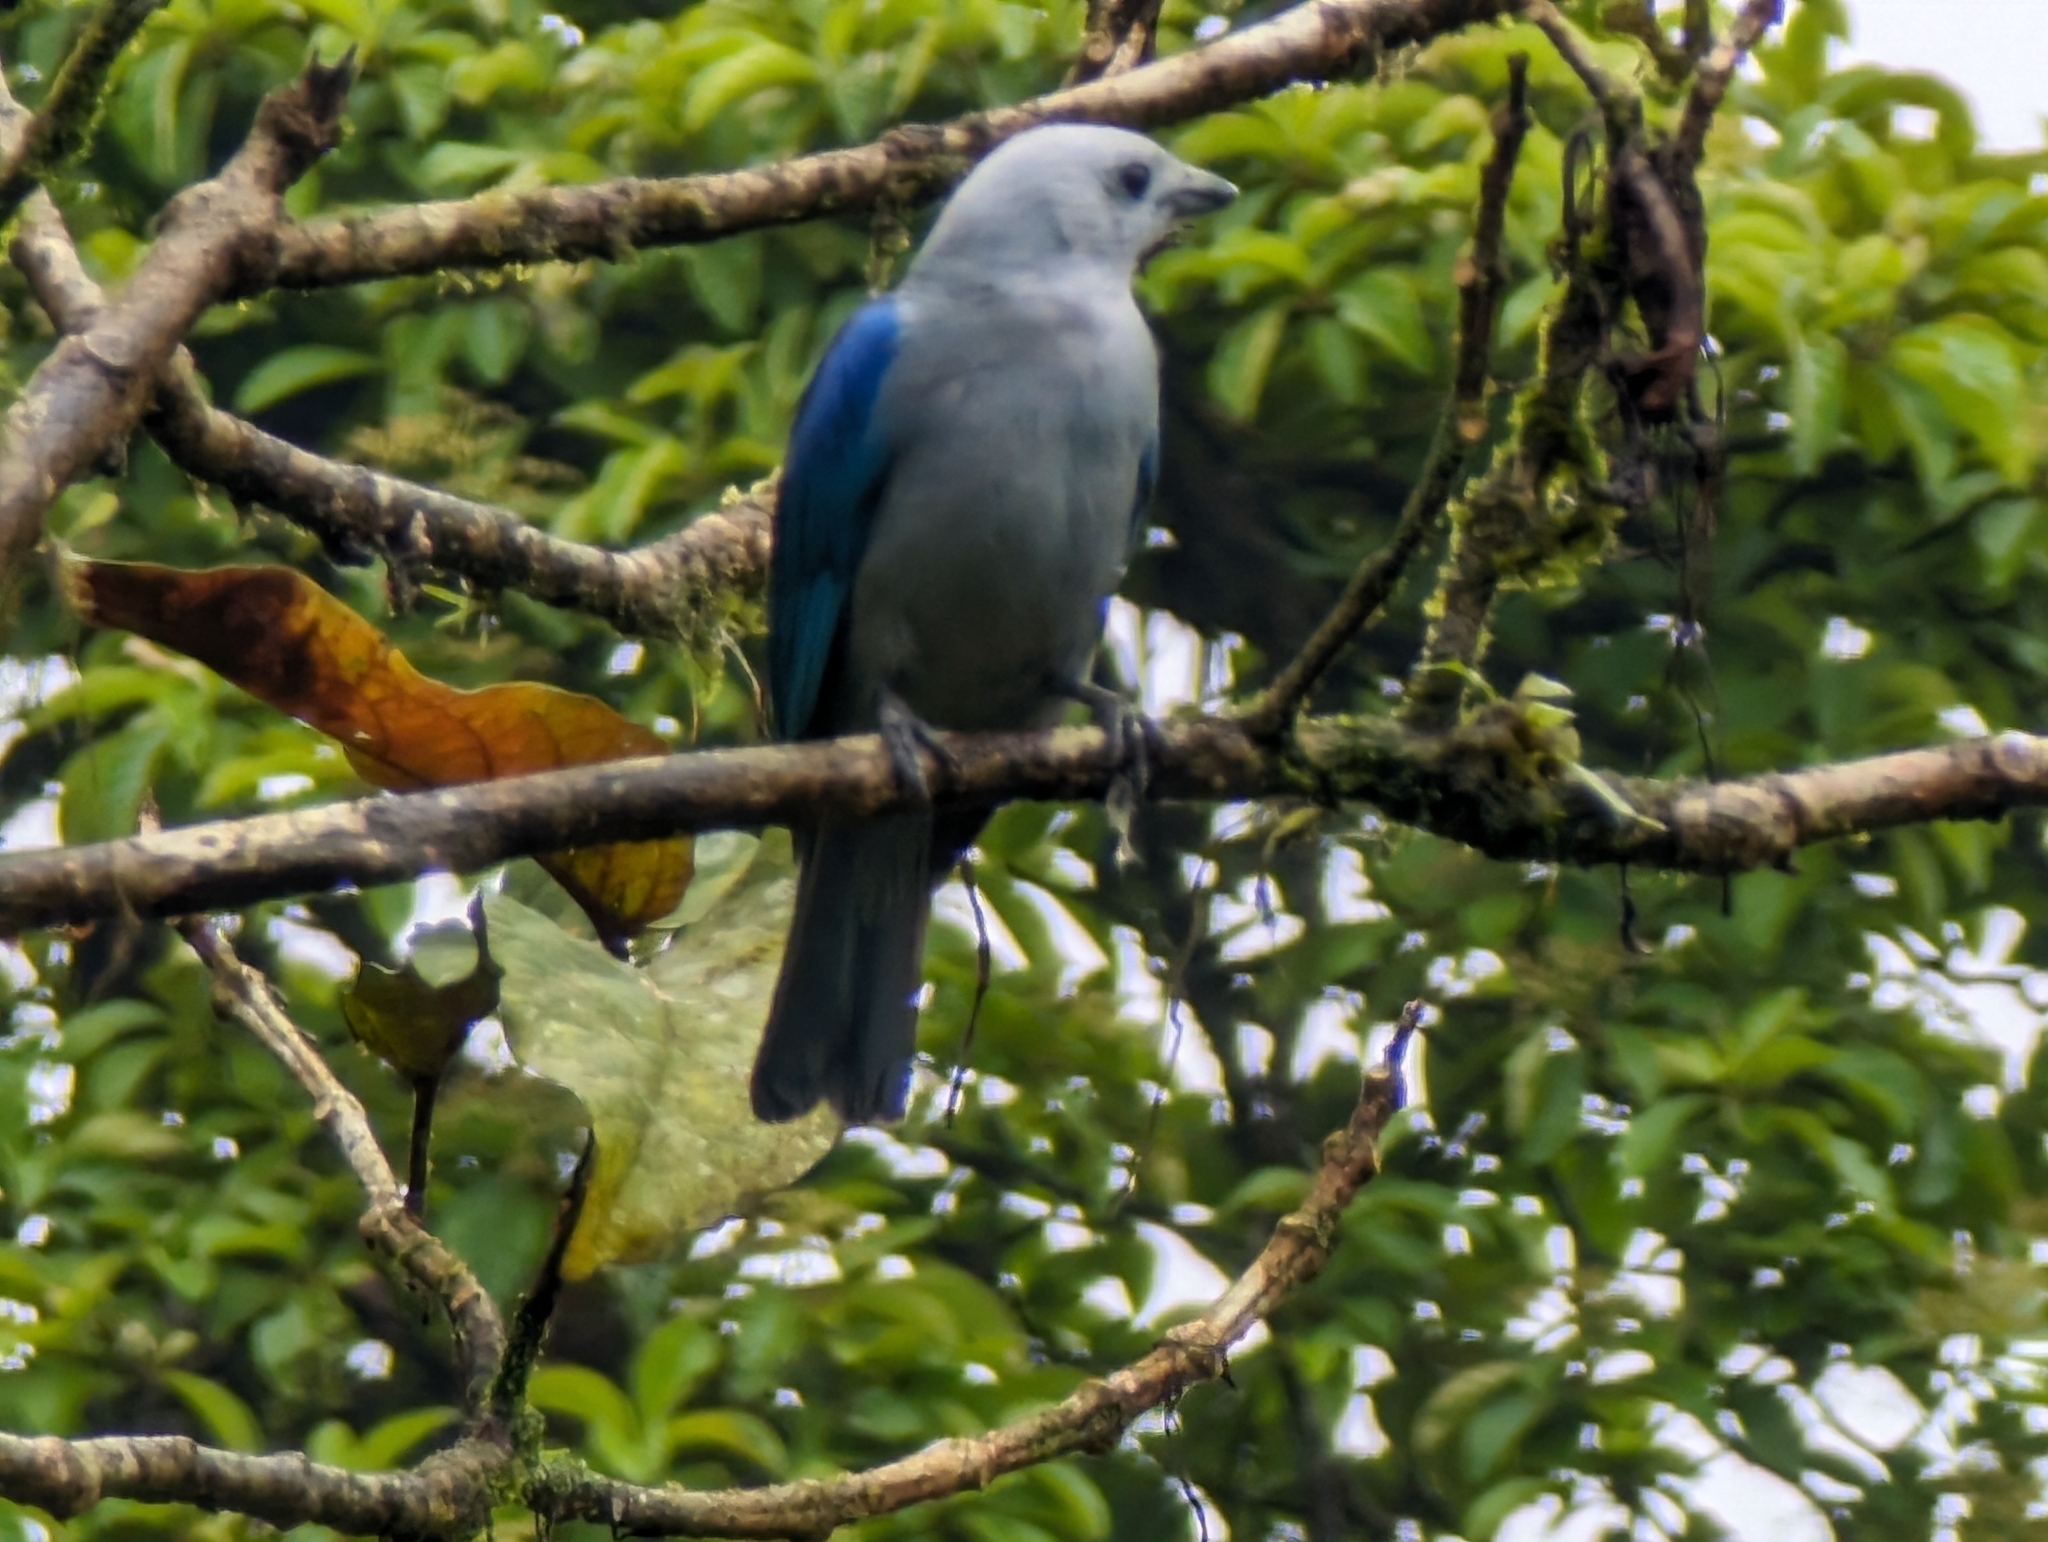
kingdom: Animalia
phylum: Chordata
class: Aves
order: Passeriformes
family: Thraupidae
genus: Thraupis
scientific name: Thraupis episcopus
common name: Blue-grey tanager
